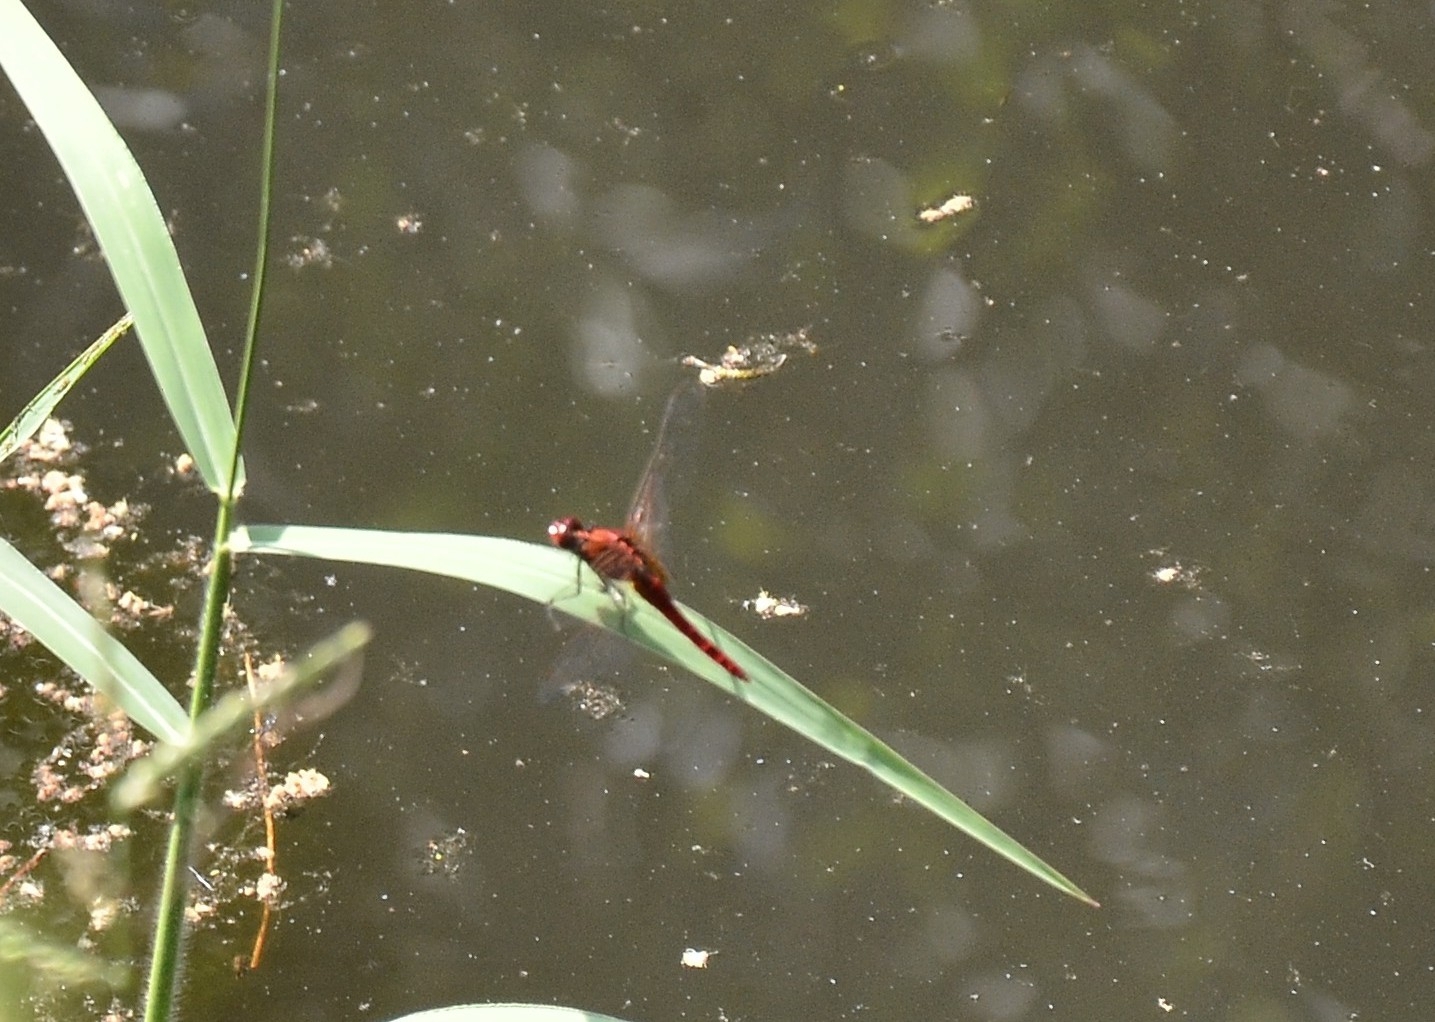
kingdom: Animalia
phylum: Arthropoda
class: Insecta
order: Odonata
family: Libellulidae
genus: Rhodothemis
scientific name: Rhodothemis rufa
